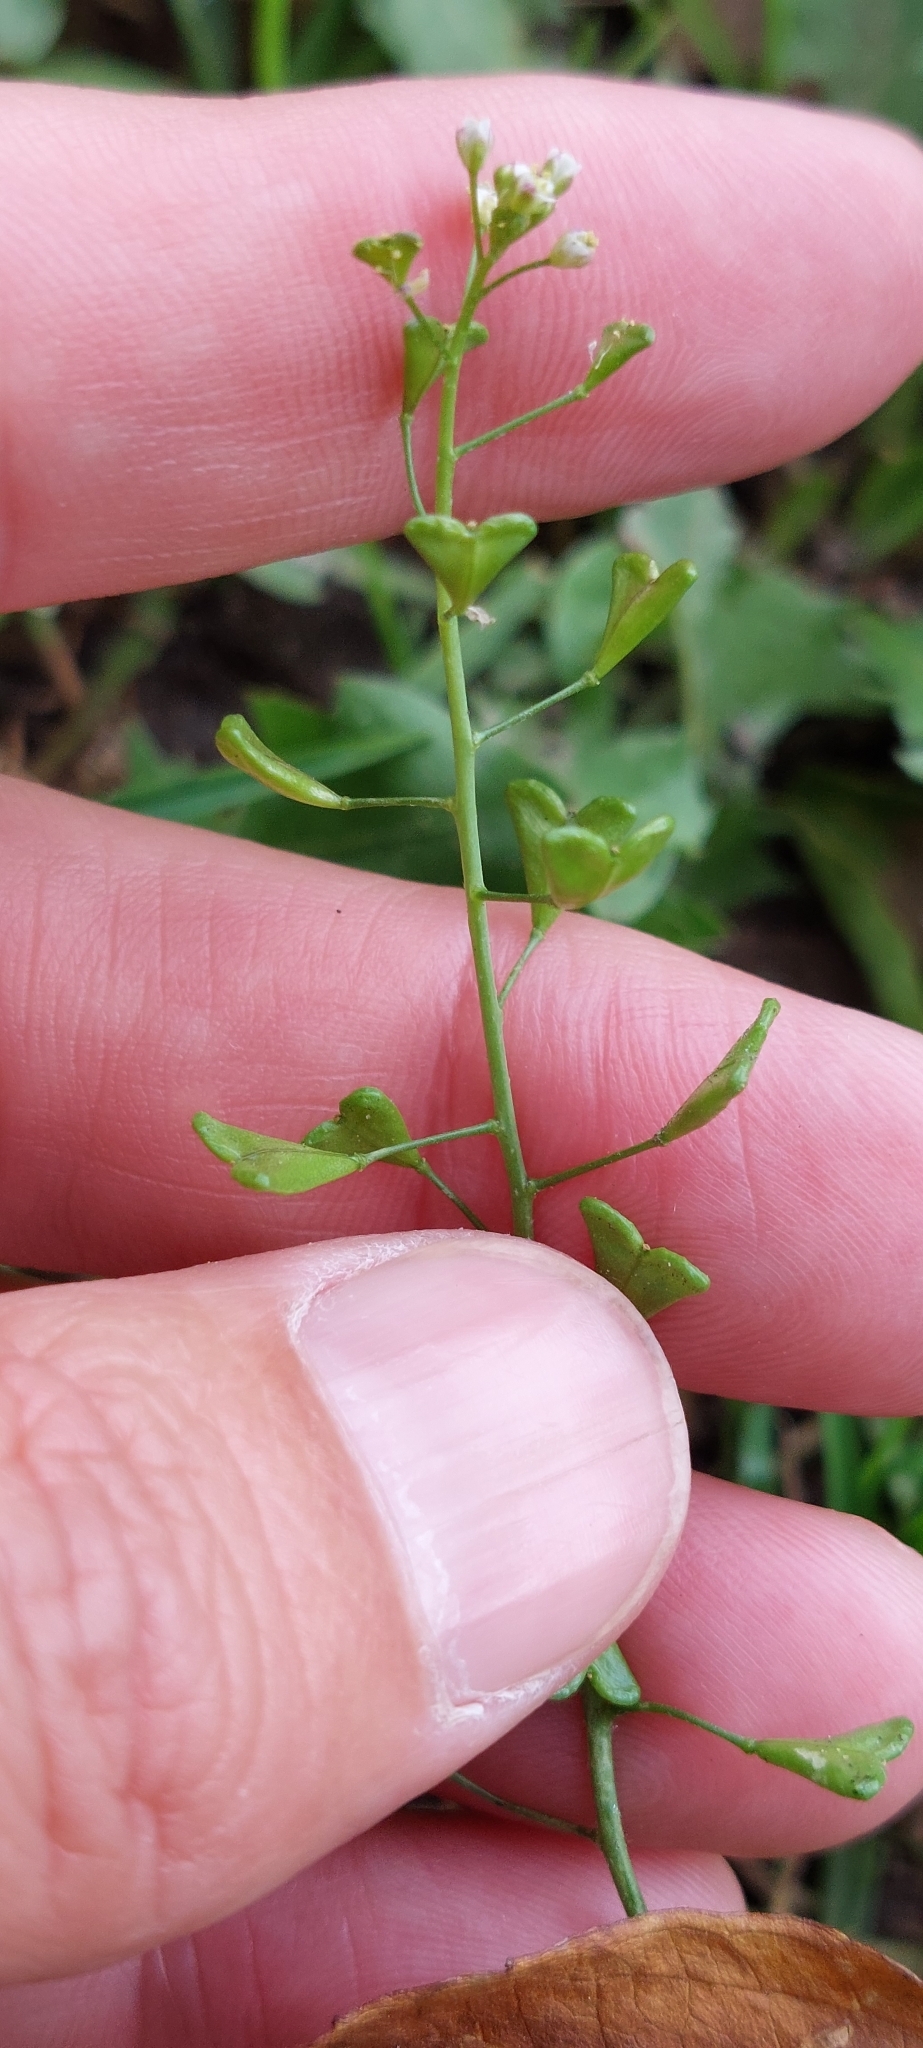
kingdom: Plantae
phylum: Tracheophyta
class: Magnoliopsida
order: Brassicales
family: Brassicaceae
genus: Capsella
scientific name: Capsella bursa-pastoris
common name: Shepherd's purse
